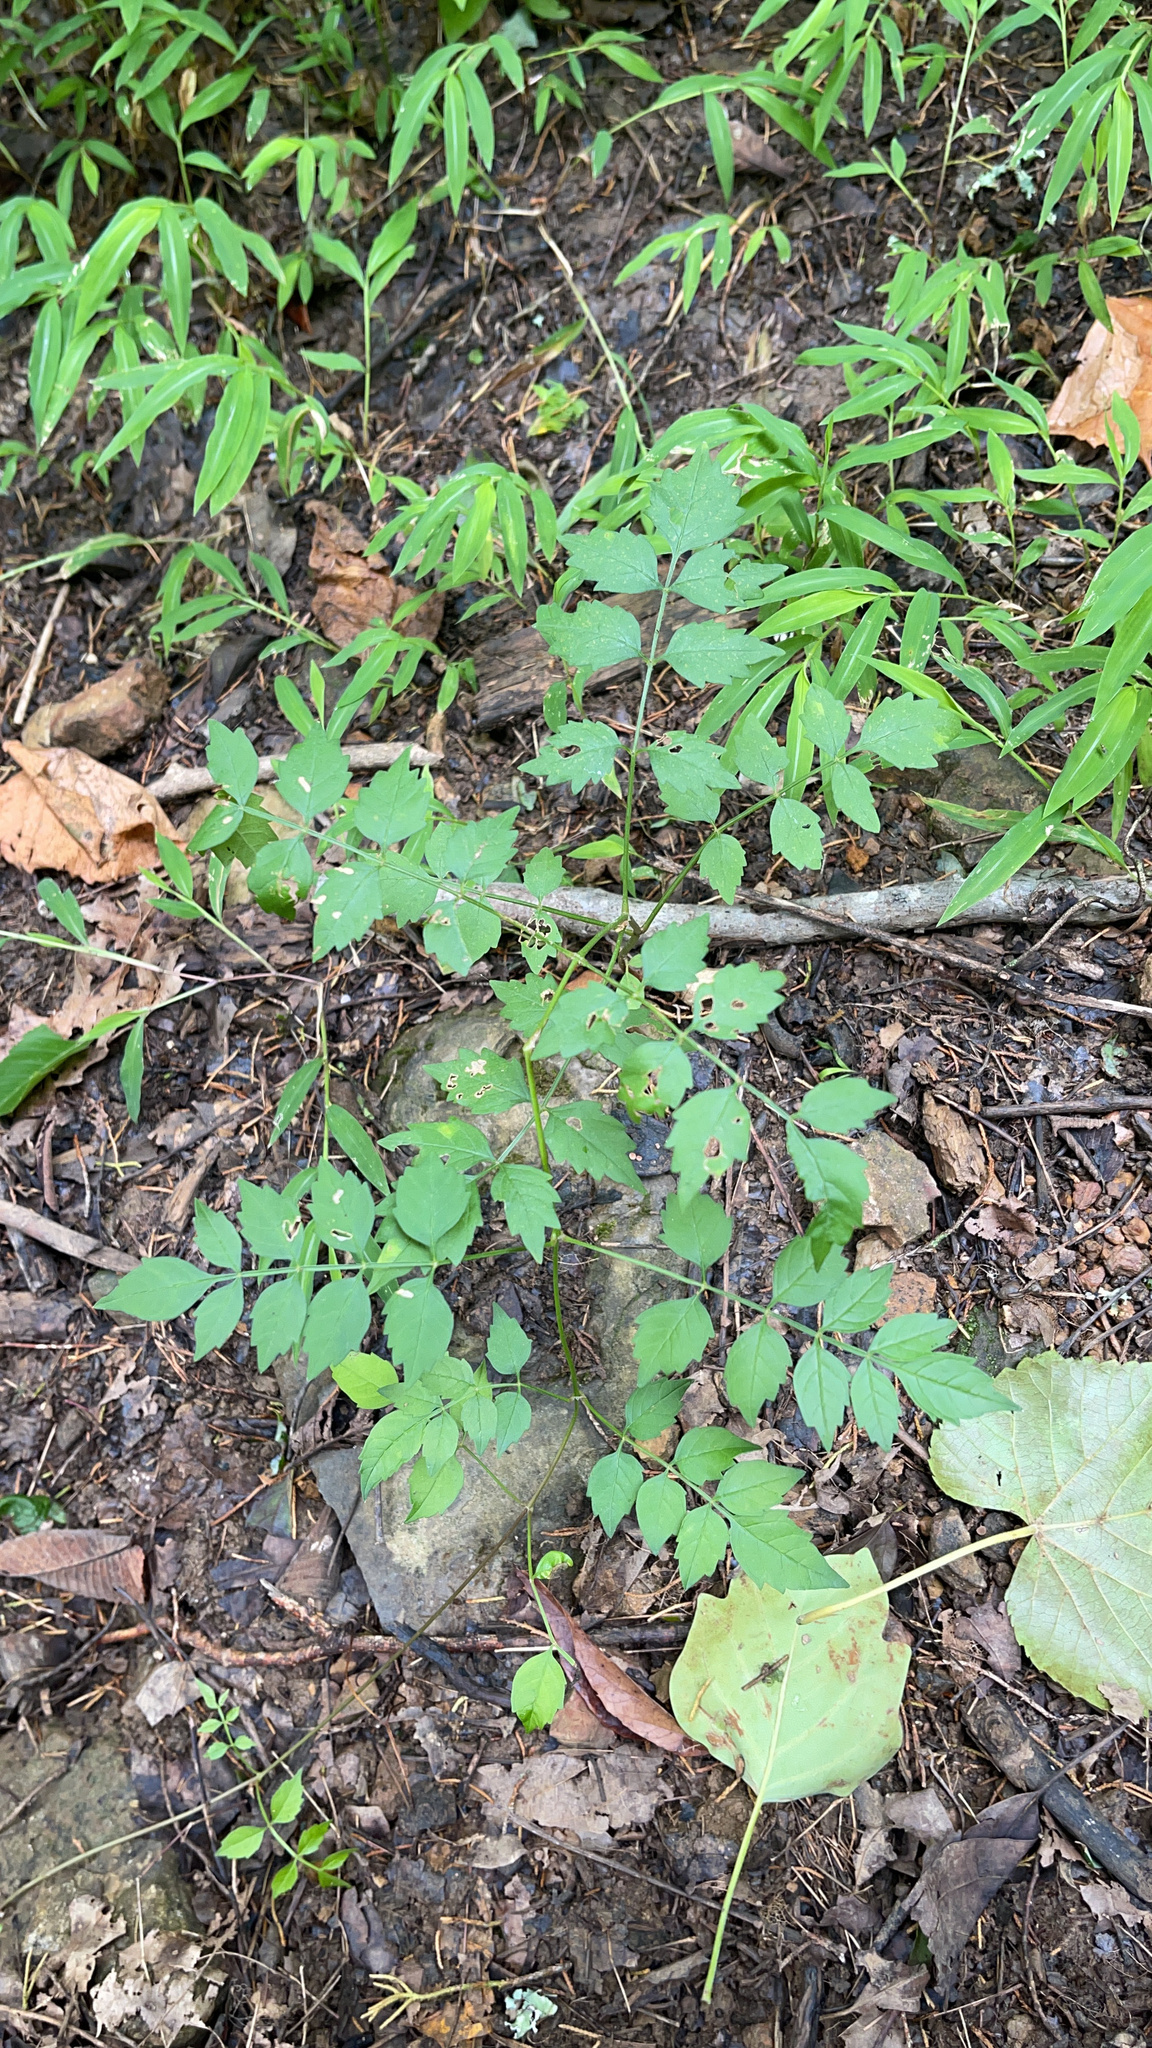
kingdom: Plantae
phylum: Tracheophyta
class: Magnoliopsida
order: Lamiales
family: Bignoniaceae
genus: Campsis
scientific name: Campsis radicans
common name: Trumpet-creeper
